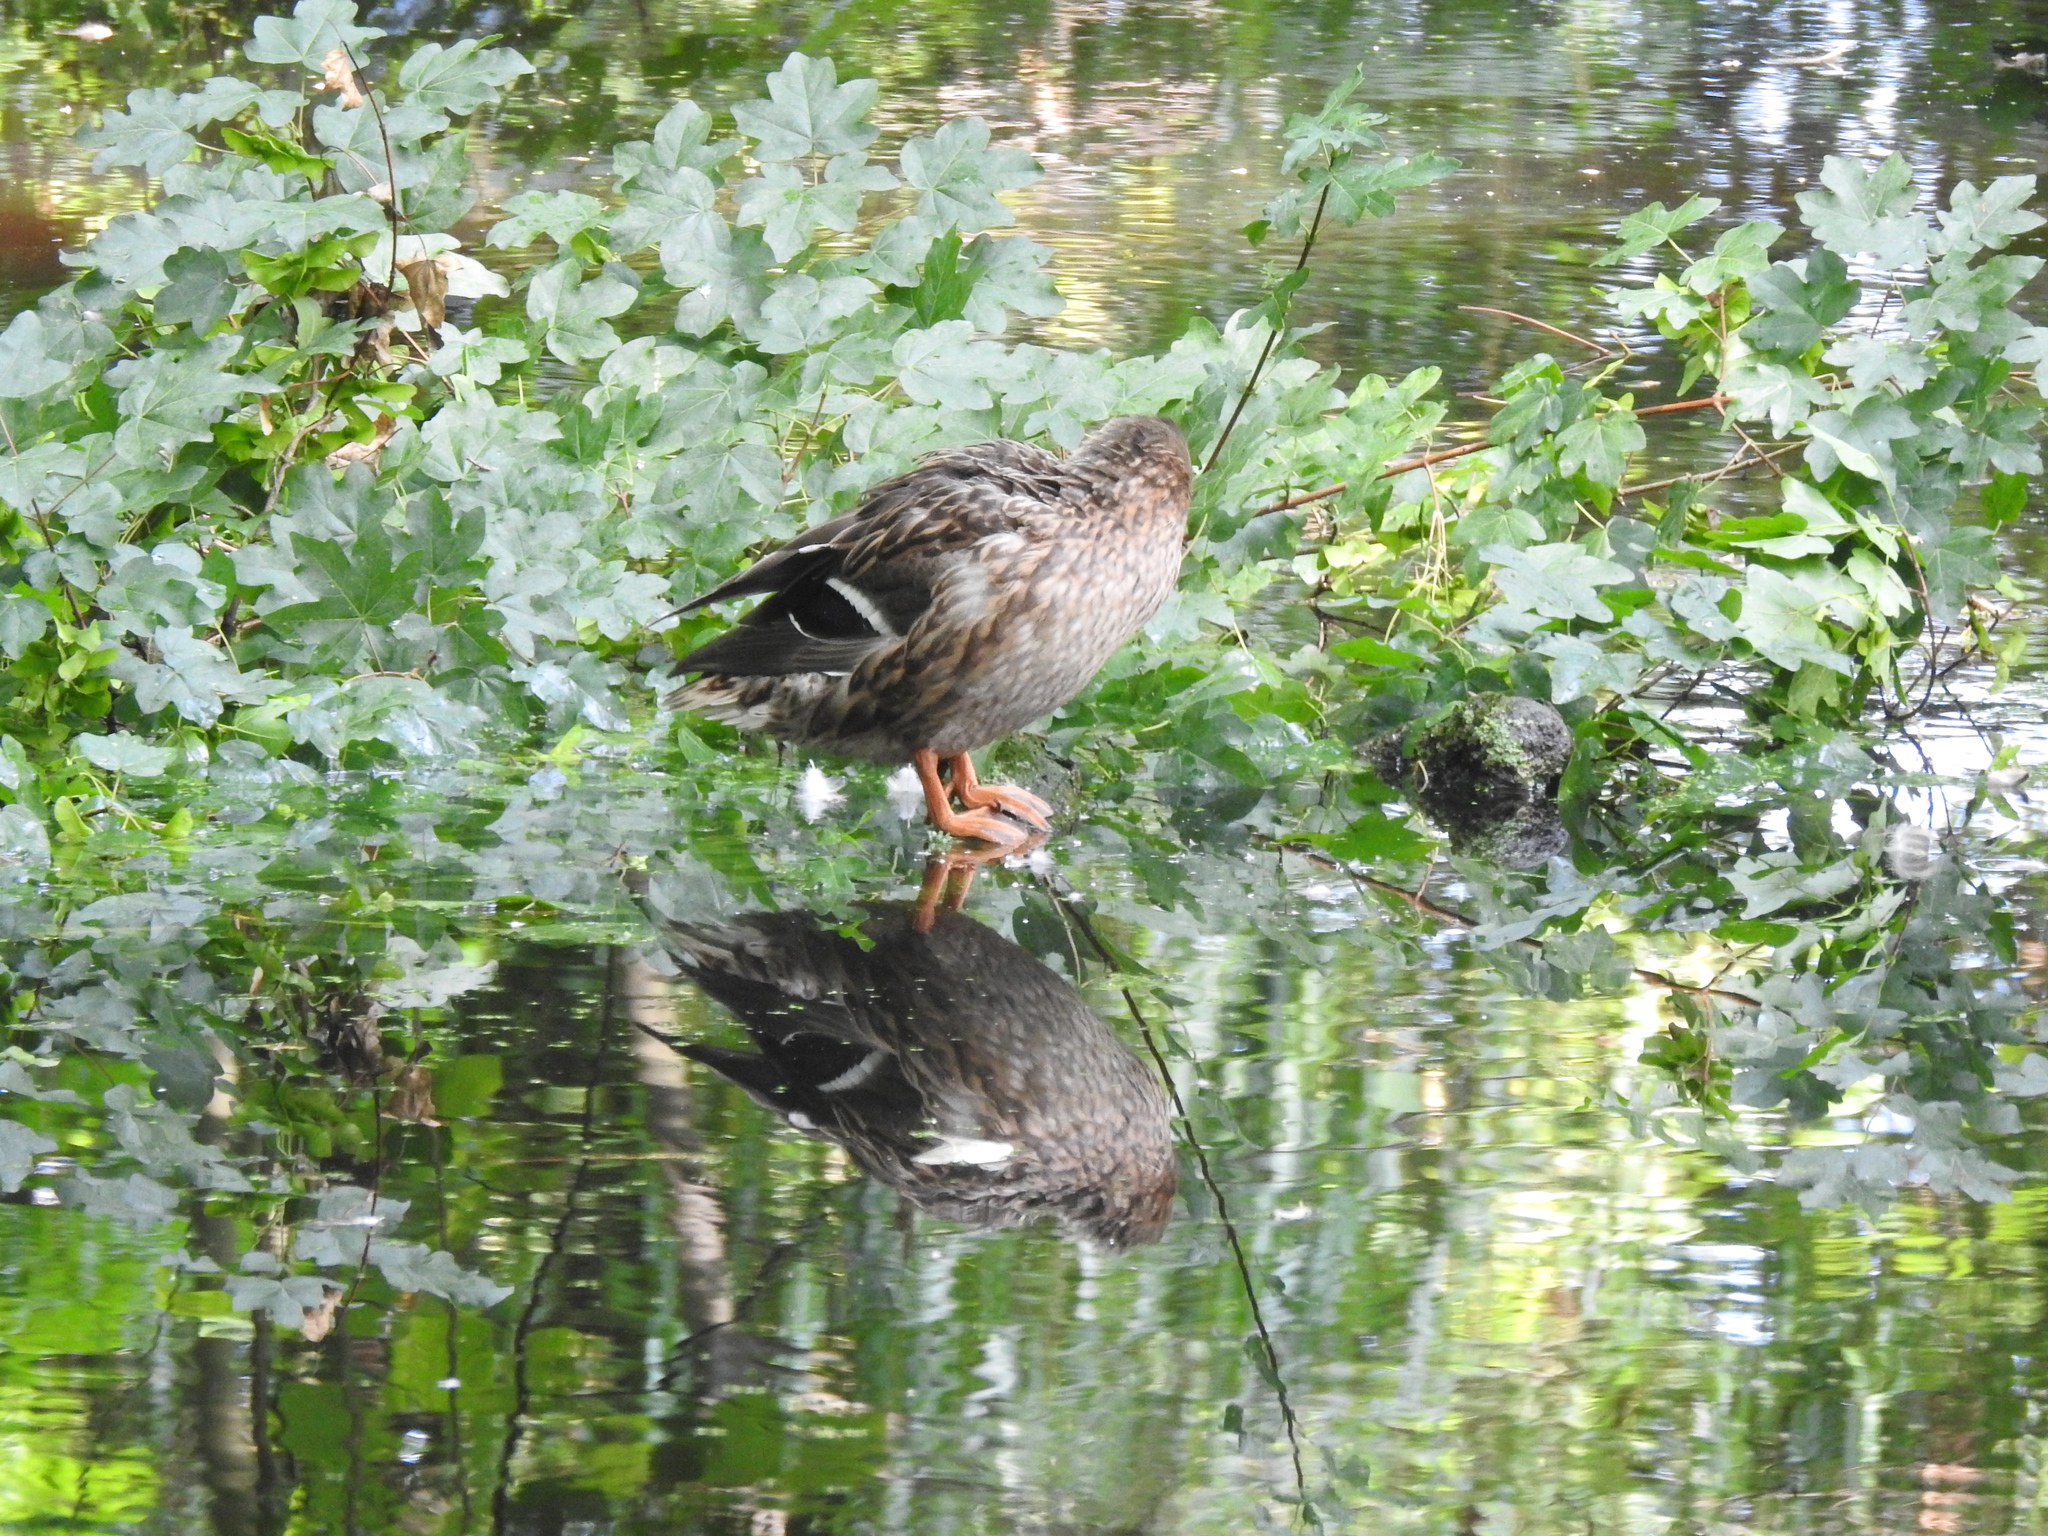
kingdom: Animalia
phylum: Chordata
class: Aves
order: Anseriformes
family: Anatidae
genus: Anas
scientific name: Anas platyrhynchos
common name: Mallard
